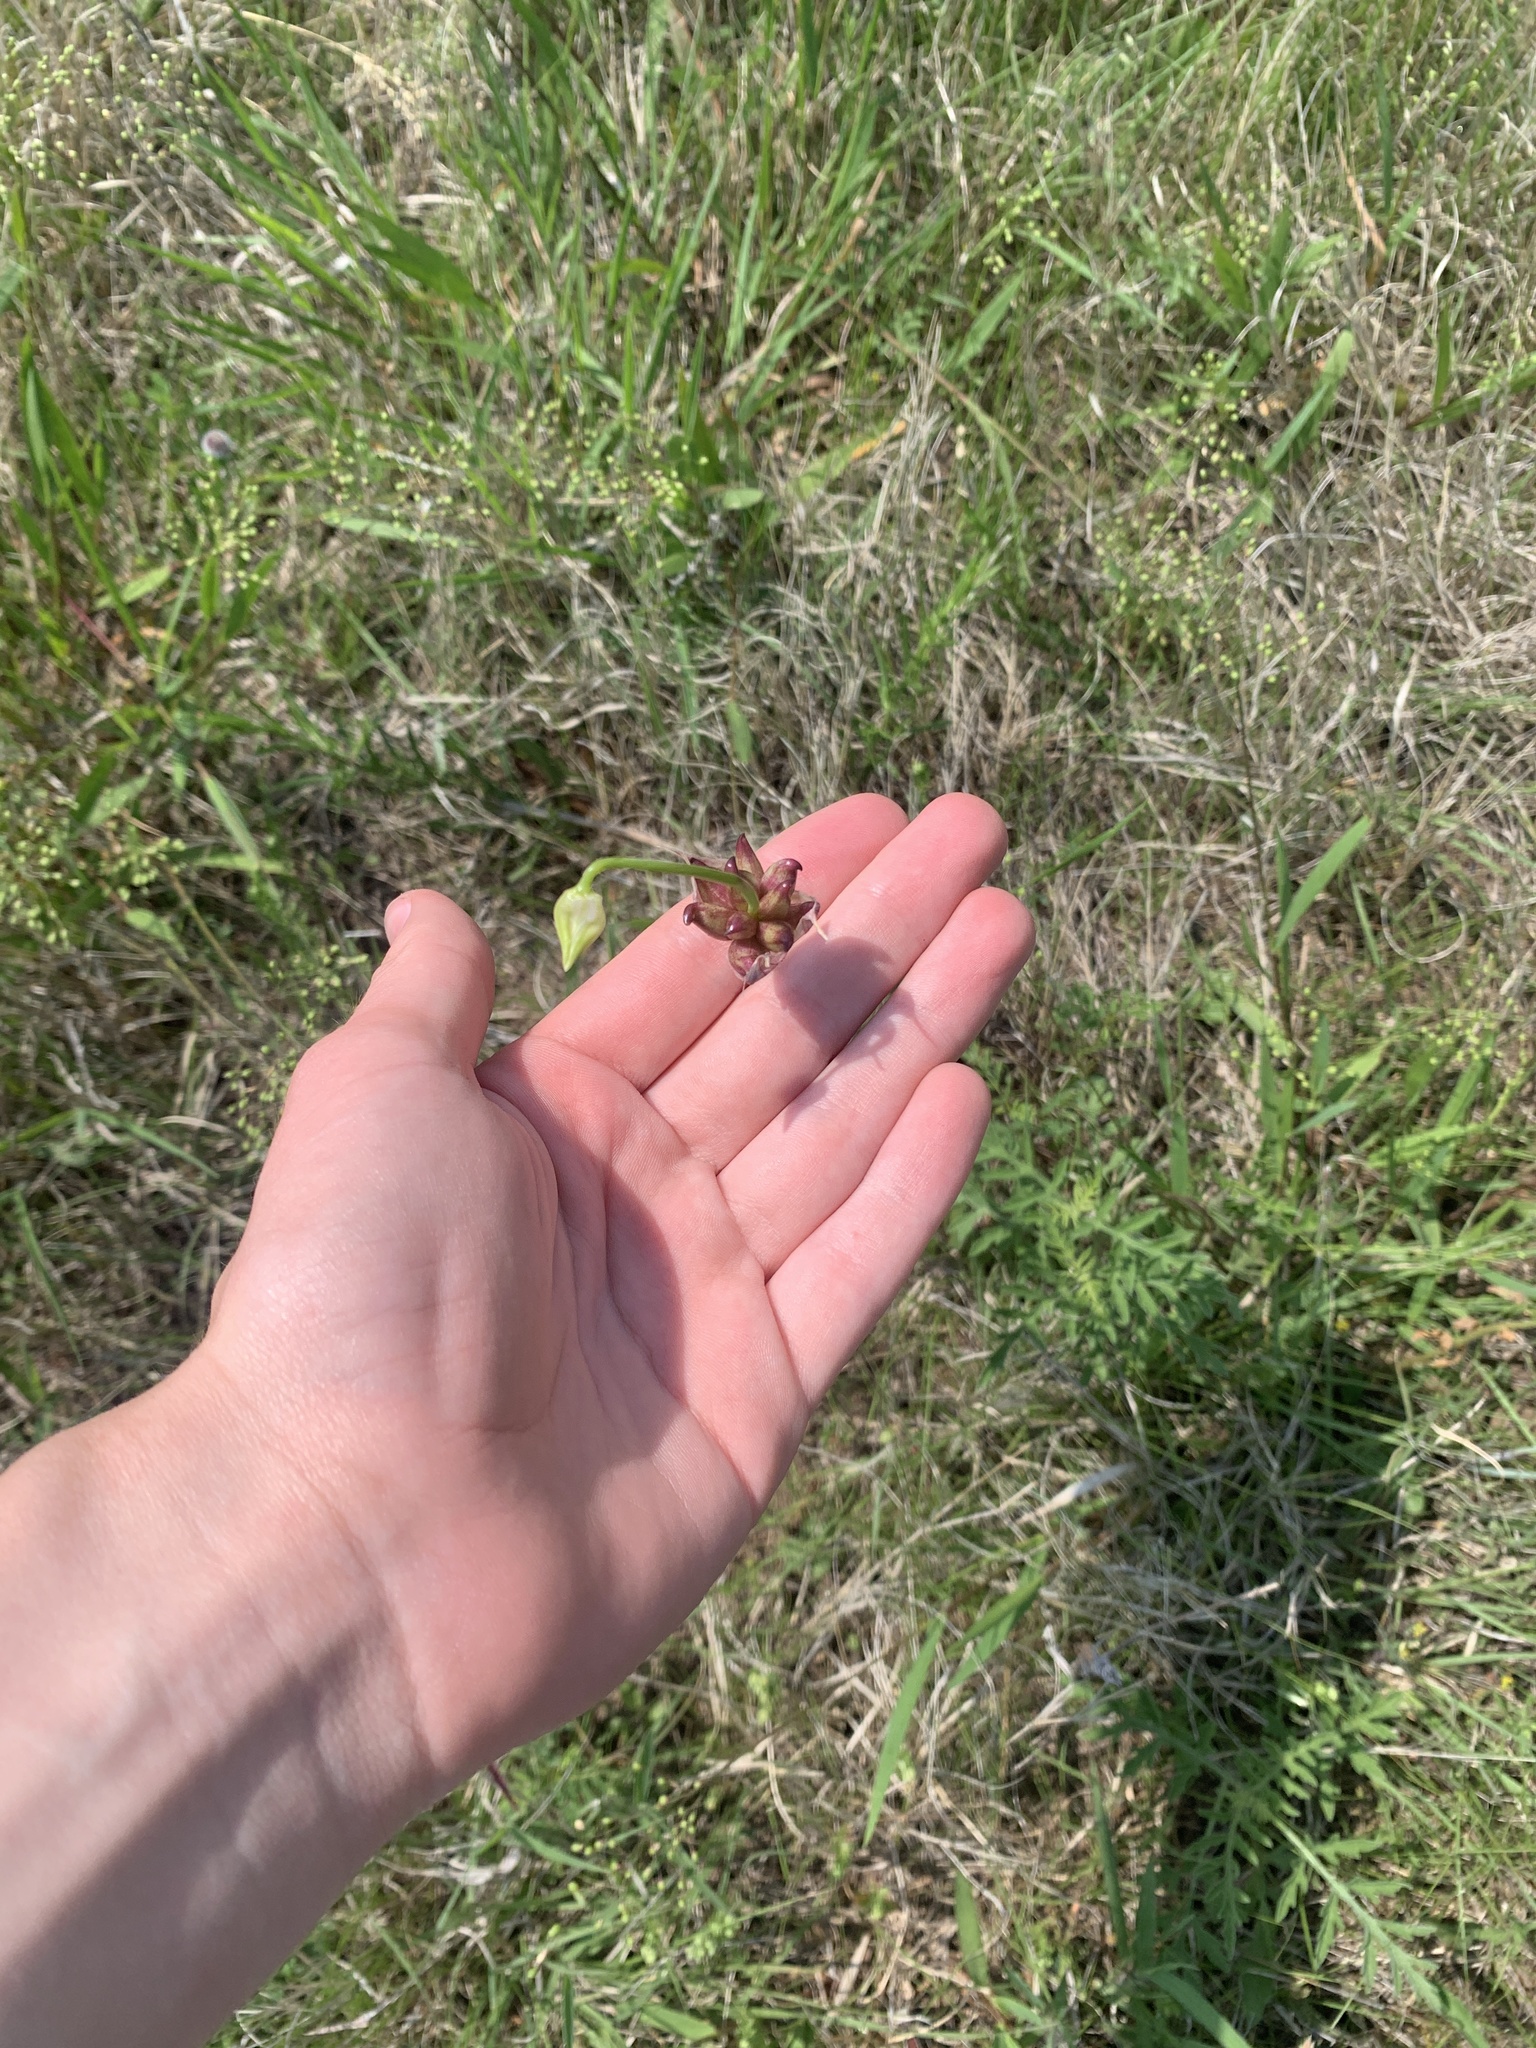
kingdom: Plantae
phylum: Tracheophyta
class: Liliopsida
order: Asparagales
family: Amaryllidaceae
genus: Allium
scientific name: Allium canadense
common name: Meadow garlic
